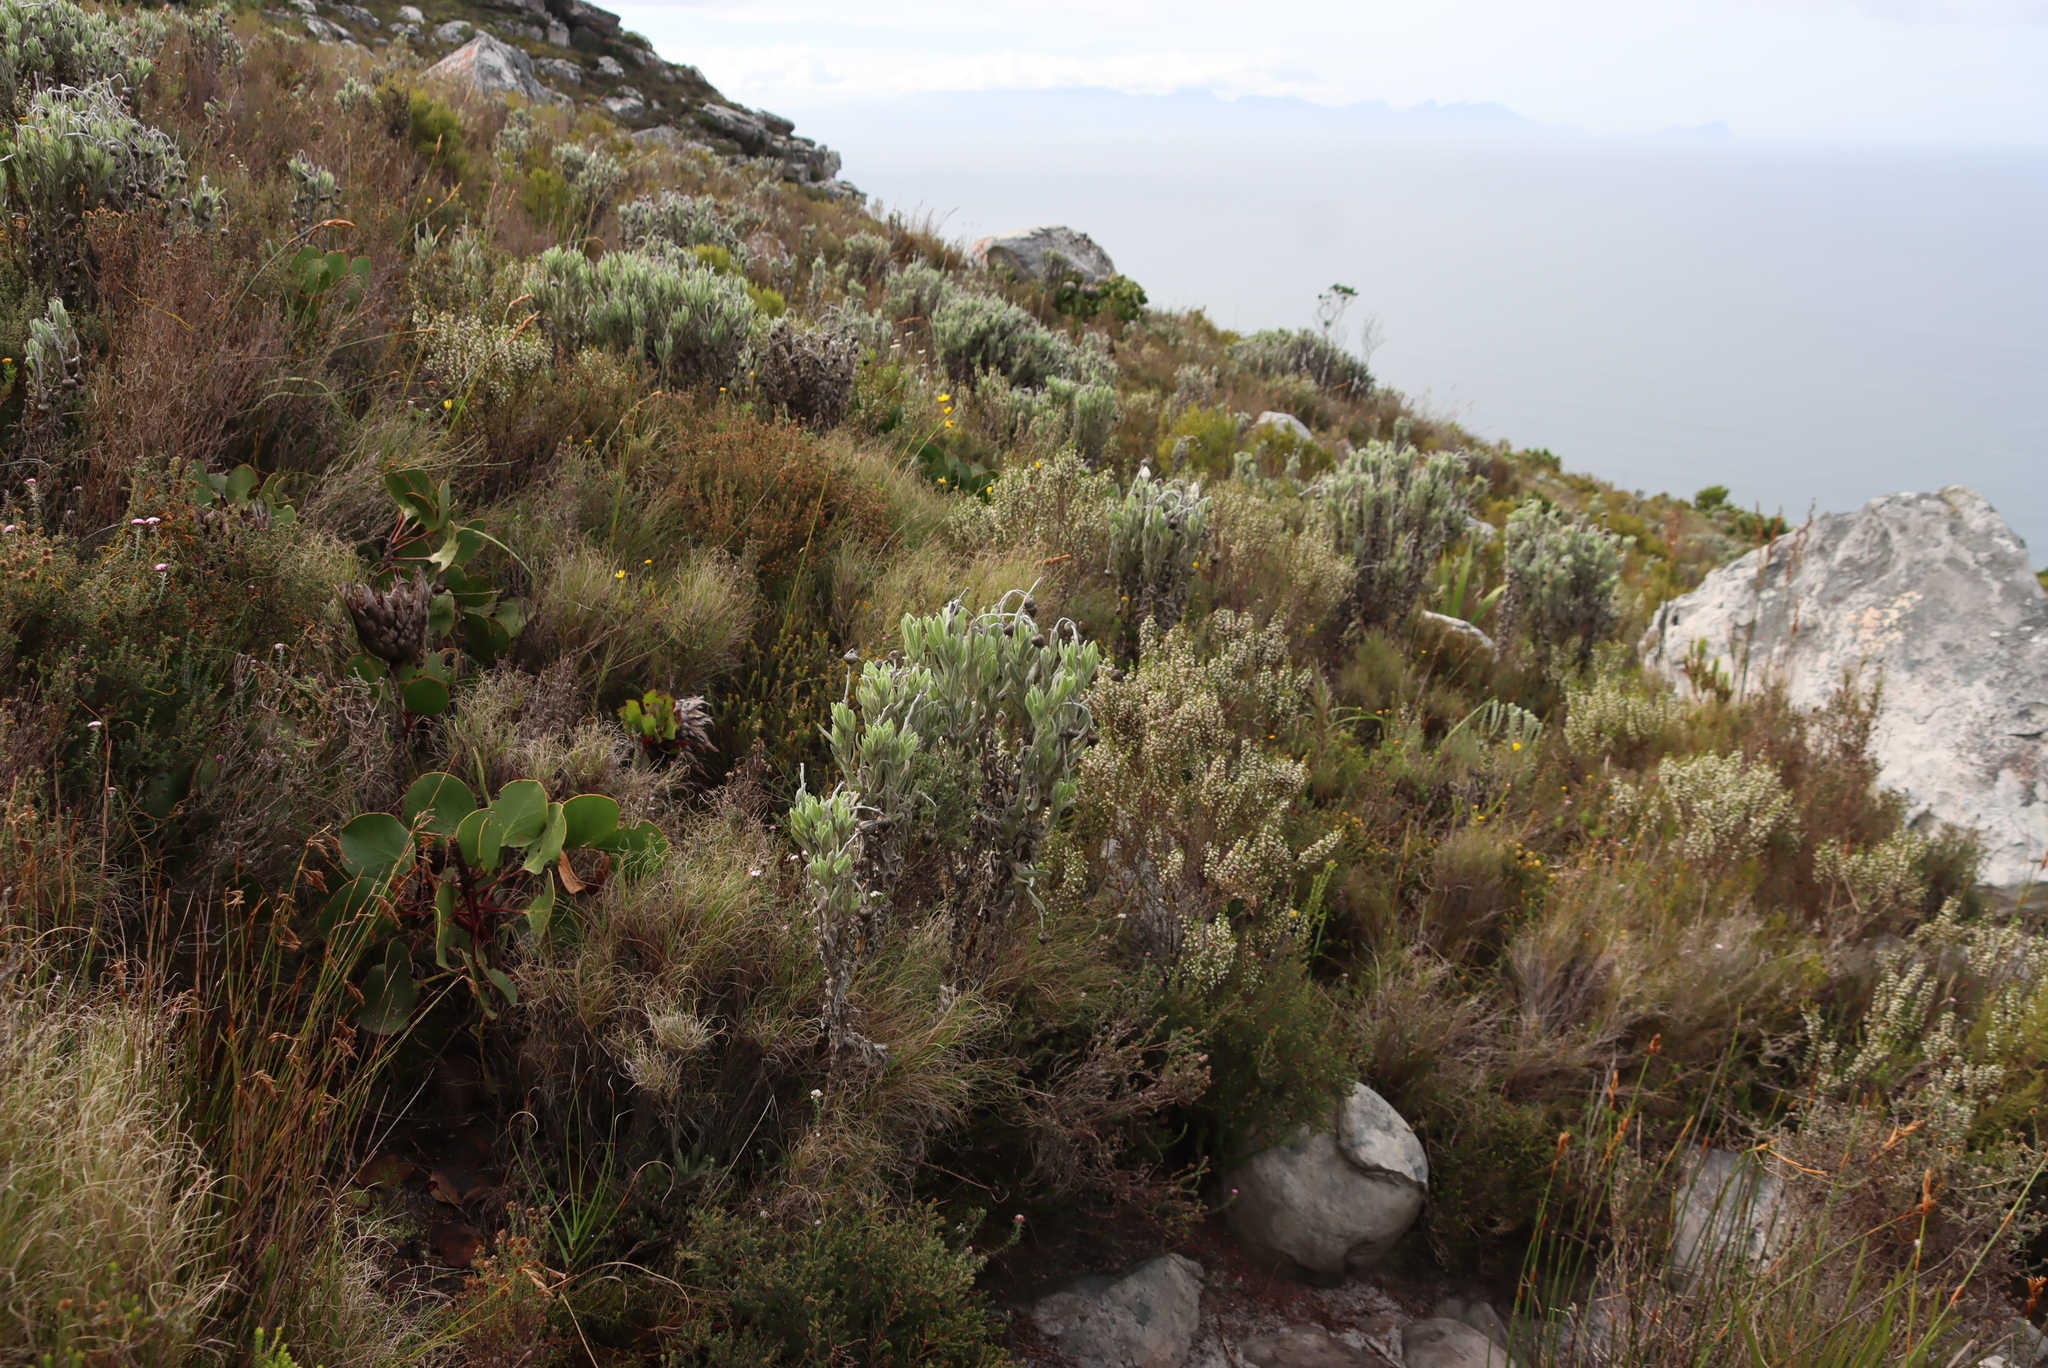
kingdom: Plantae
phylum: Tracheophyta
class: Magnoliopsida
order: Asterales
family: Asteraceae
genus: Syncarpha
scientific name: Syncarpha vestita
